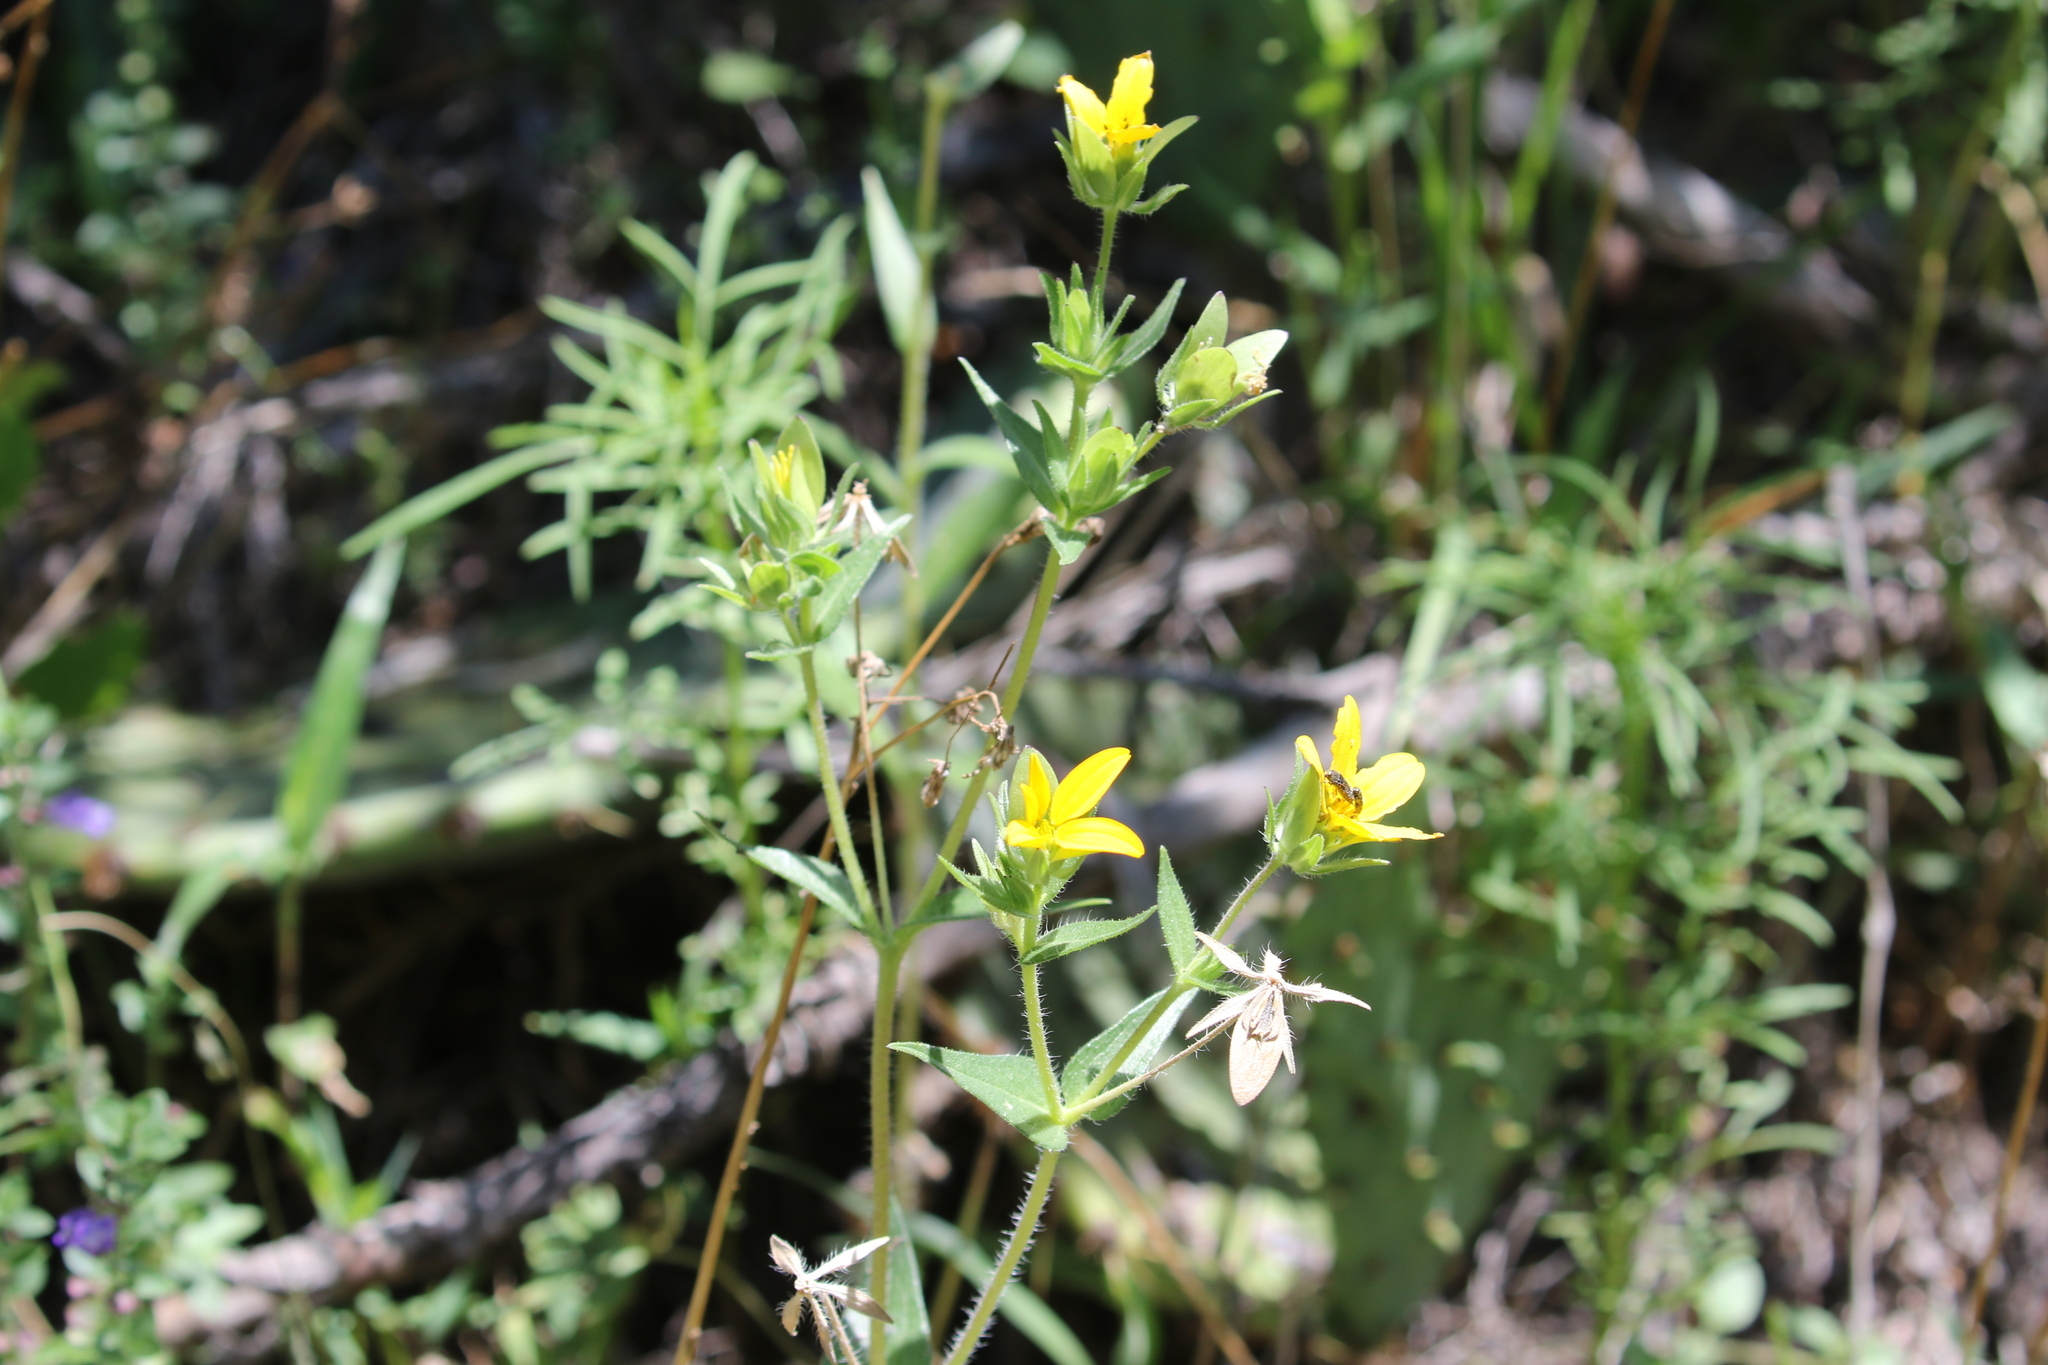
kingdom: Plantae
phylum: Tracheophyta
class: Magnoliopsida
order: Asterales
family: Asteraceae
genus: Lindheimera
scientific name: Lindheimera texana
